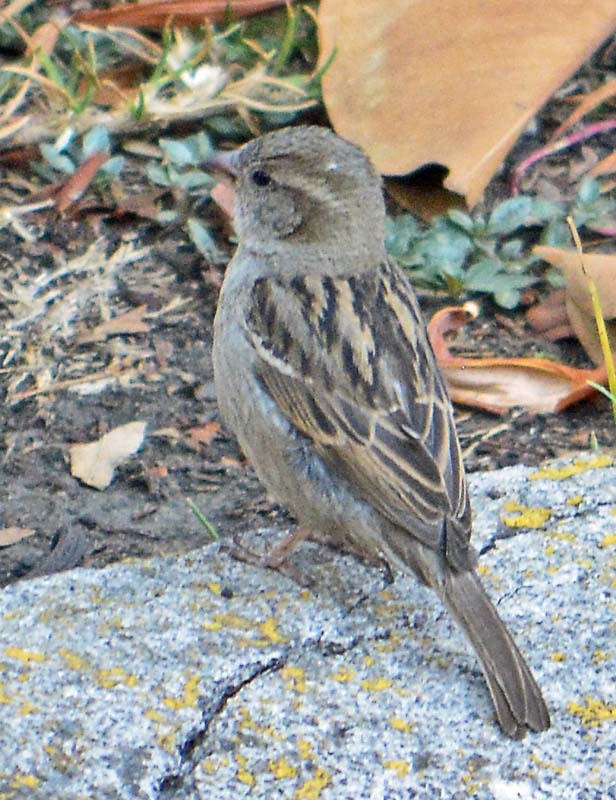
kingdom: Animalia
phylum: Chordata
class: Aves
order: Passeriformes
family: Passeridae
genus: Passer
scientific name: Passer domesticus
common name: House sparrow
